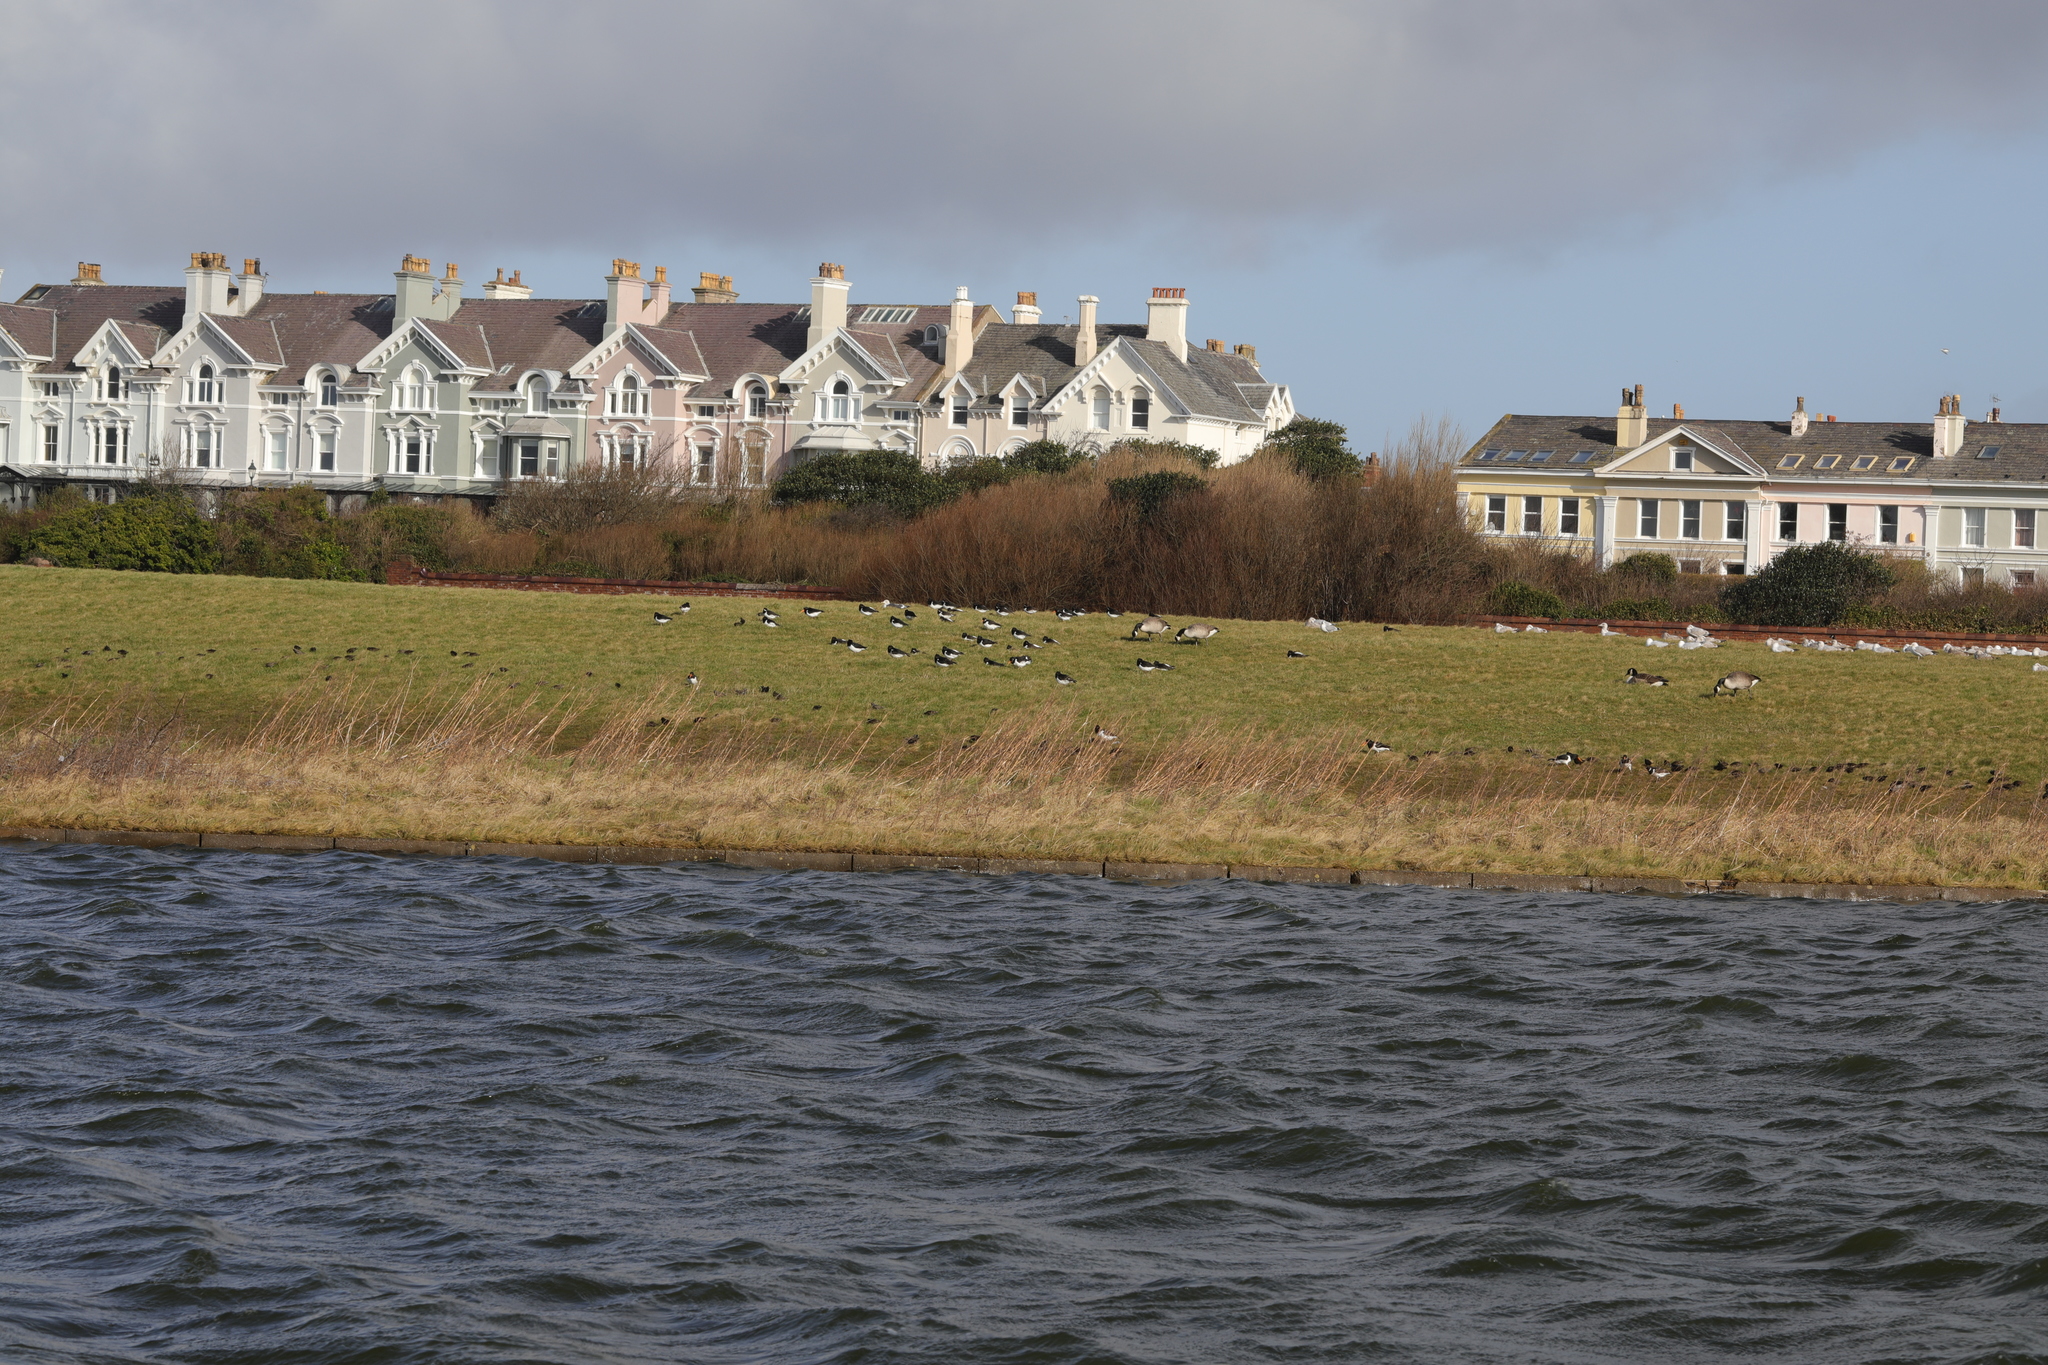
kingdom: Animalia
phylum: Chordata
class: Aves
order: Charadriiformes
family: Haematopodidae
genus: Haematopus
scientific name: Haematopus ostralegus
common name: Eurasian oystercatcher
